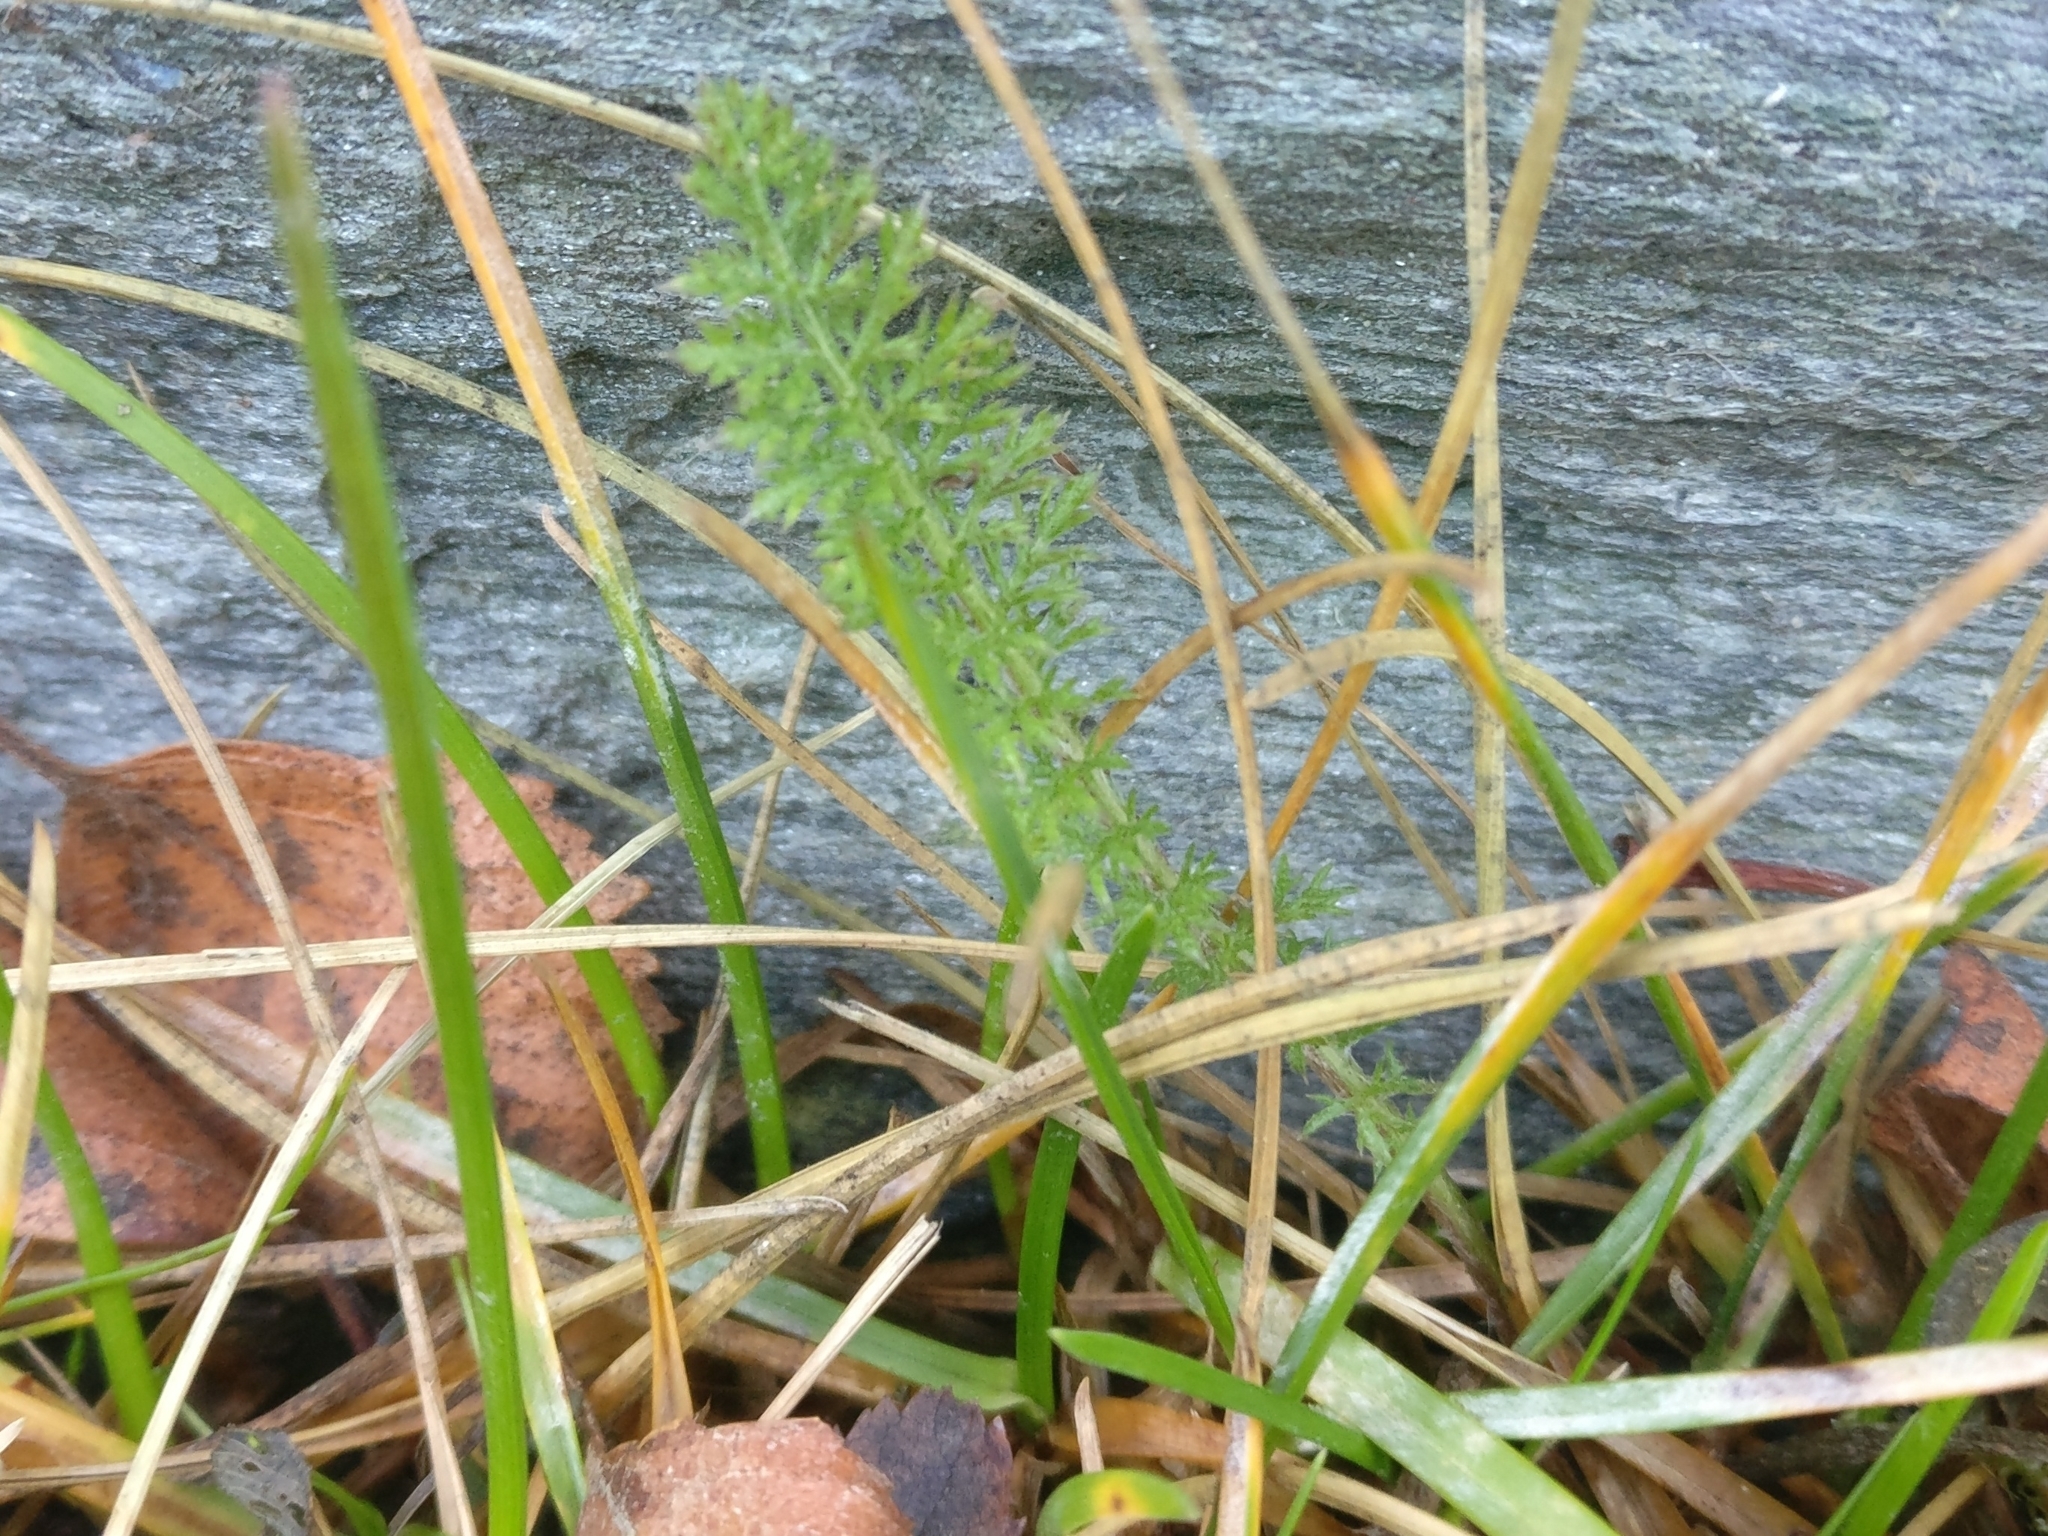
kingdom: Plantae
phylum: Tracheophyta
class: Magnoliopsida
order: Asterales
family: Asteraceae
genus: Achillea
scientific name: Achillea millefolium
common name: Yarrow
